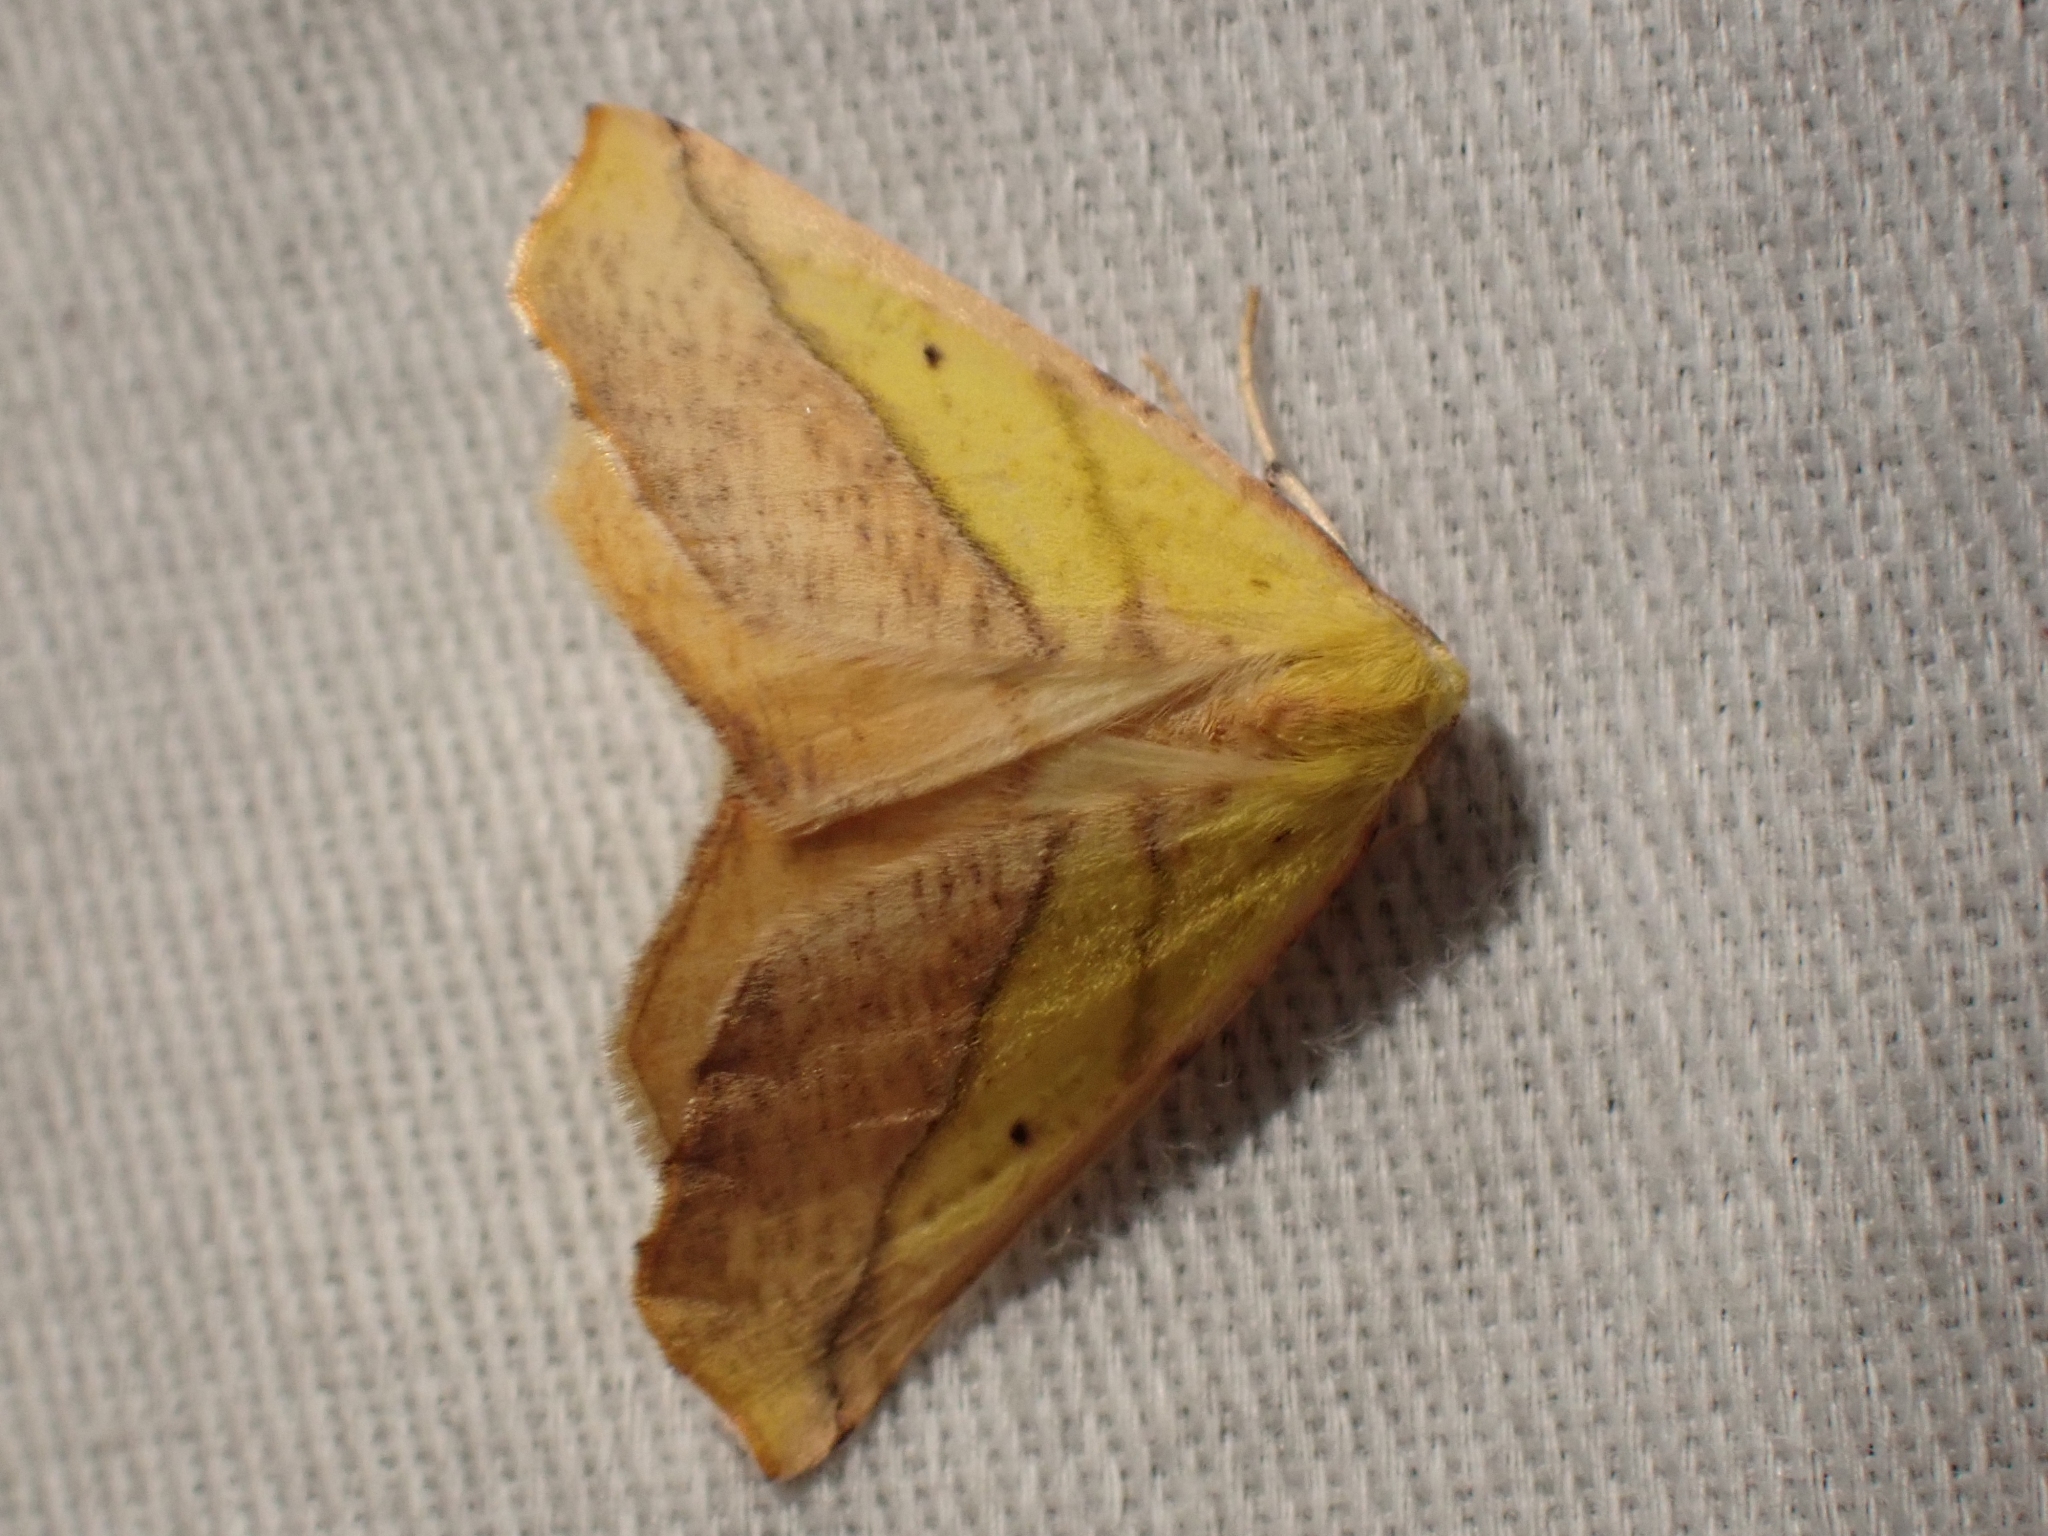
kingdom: Animalia
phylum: Arthropoda
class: Insecta
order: Lepidoptera
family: Geometridae
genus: Sicya
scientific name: Sicya macularia
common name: Sharp-lined yellow
